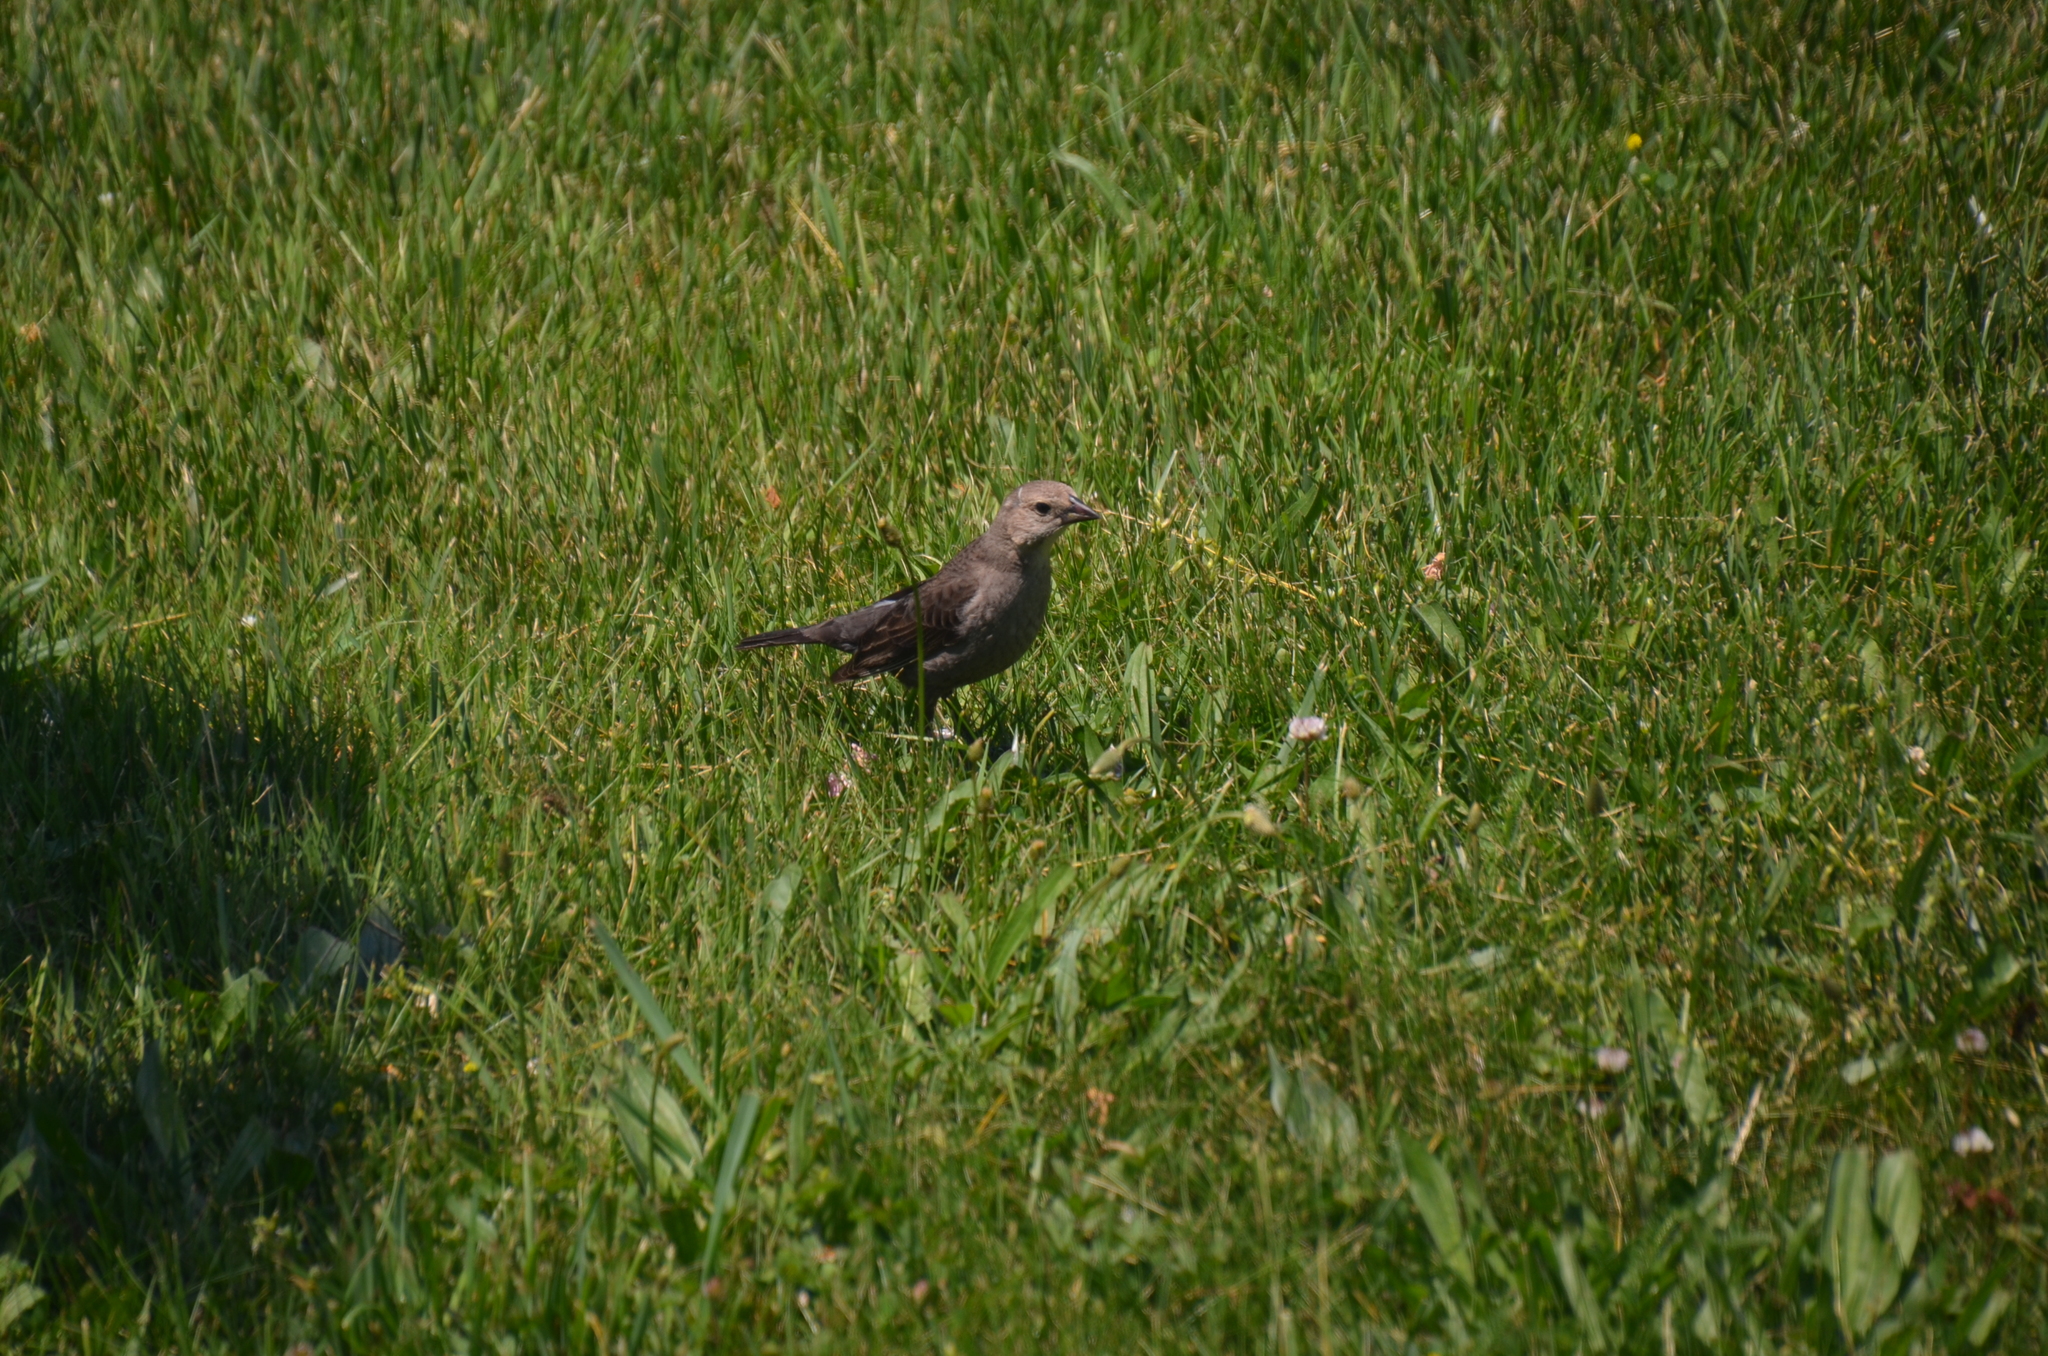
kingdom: Animalia
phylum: Chordata
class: Aves
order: Passeriformes
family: Icteridae
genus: Molothrus
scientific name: Molothrus ater
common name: Brown-headed cowbird
